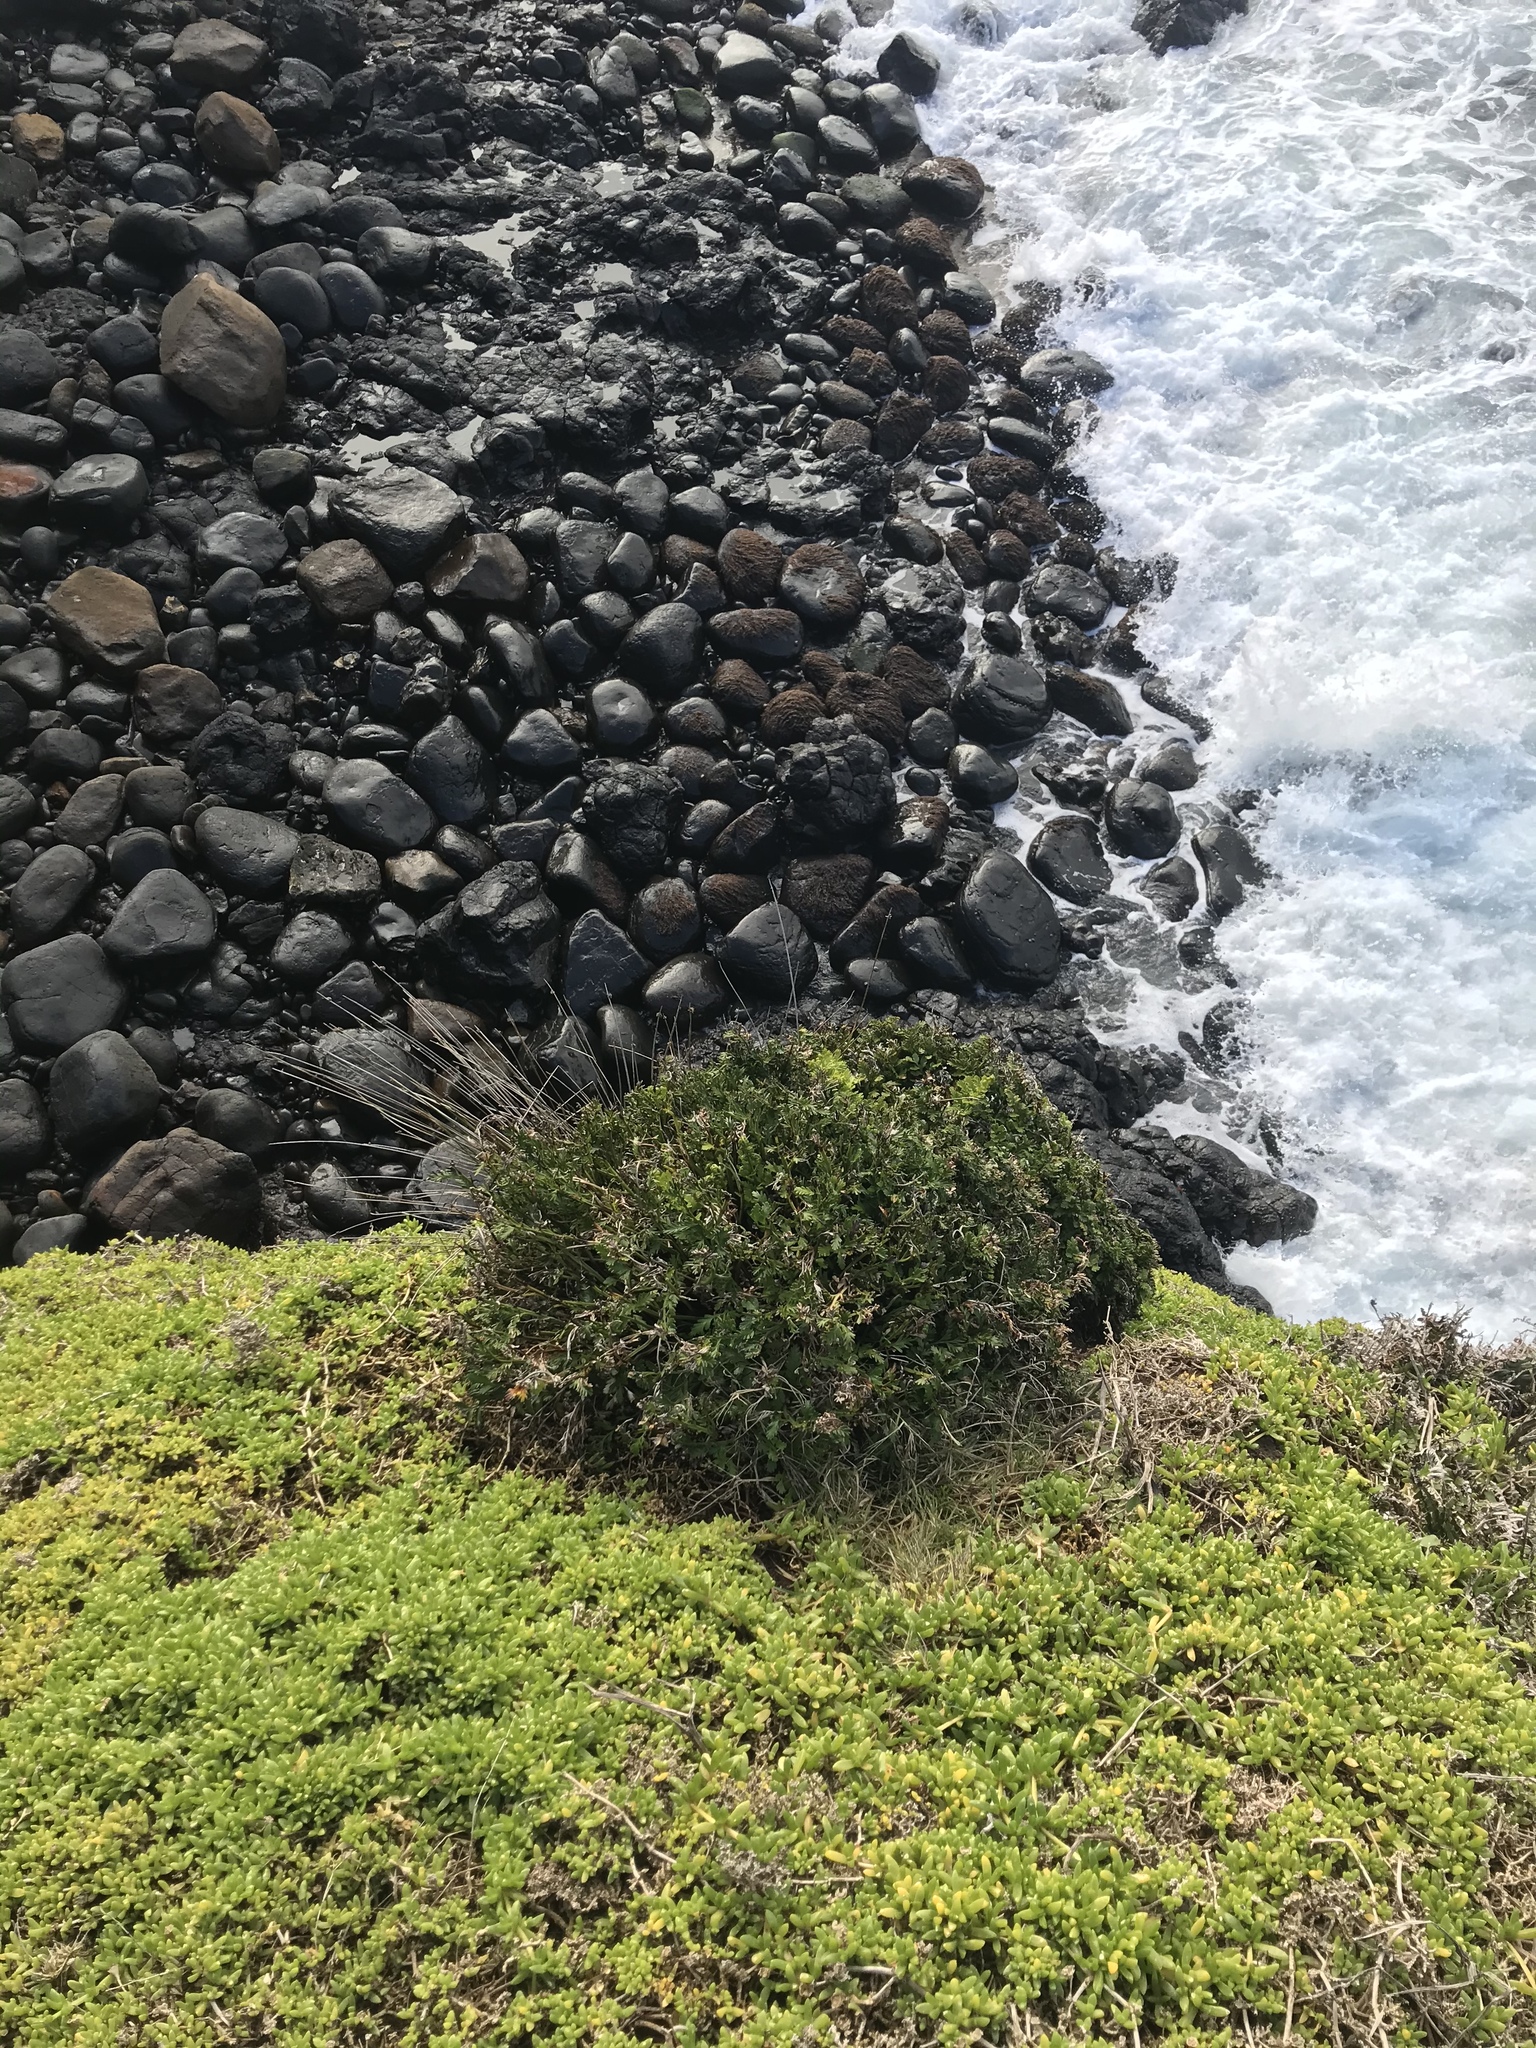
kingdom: Plantae
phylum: Tracheophyta
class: Polypodiopsida
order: Polypodiales
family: Aspleniaceae
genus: Asplenium
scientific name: Asplenium chathamense
